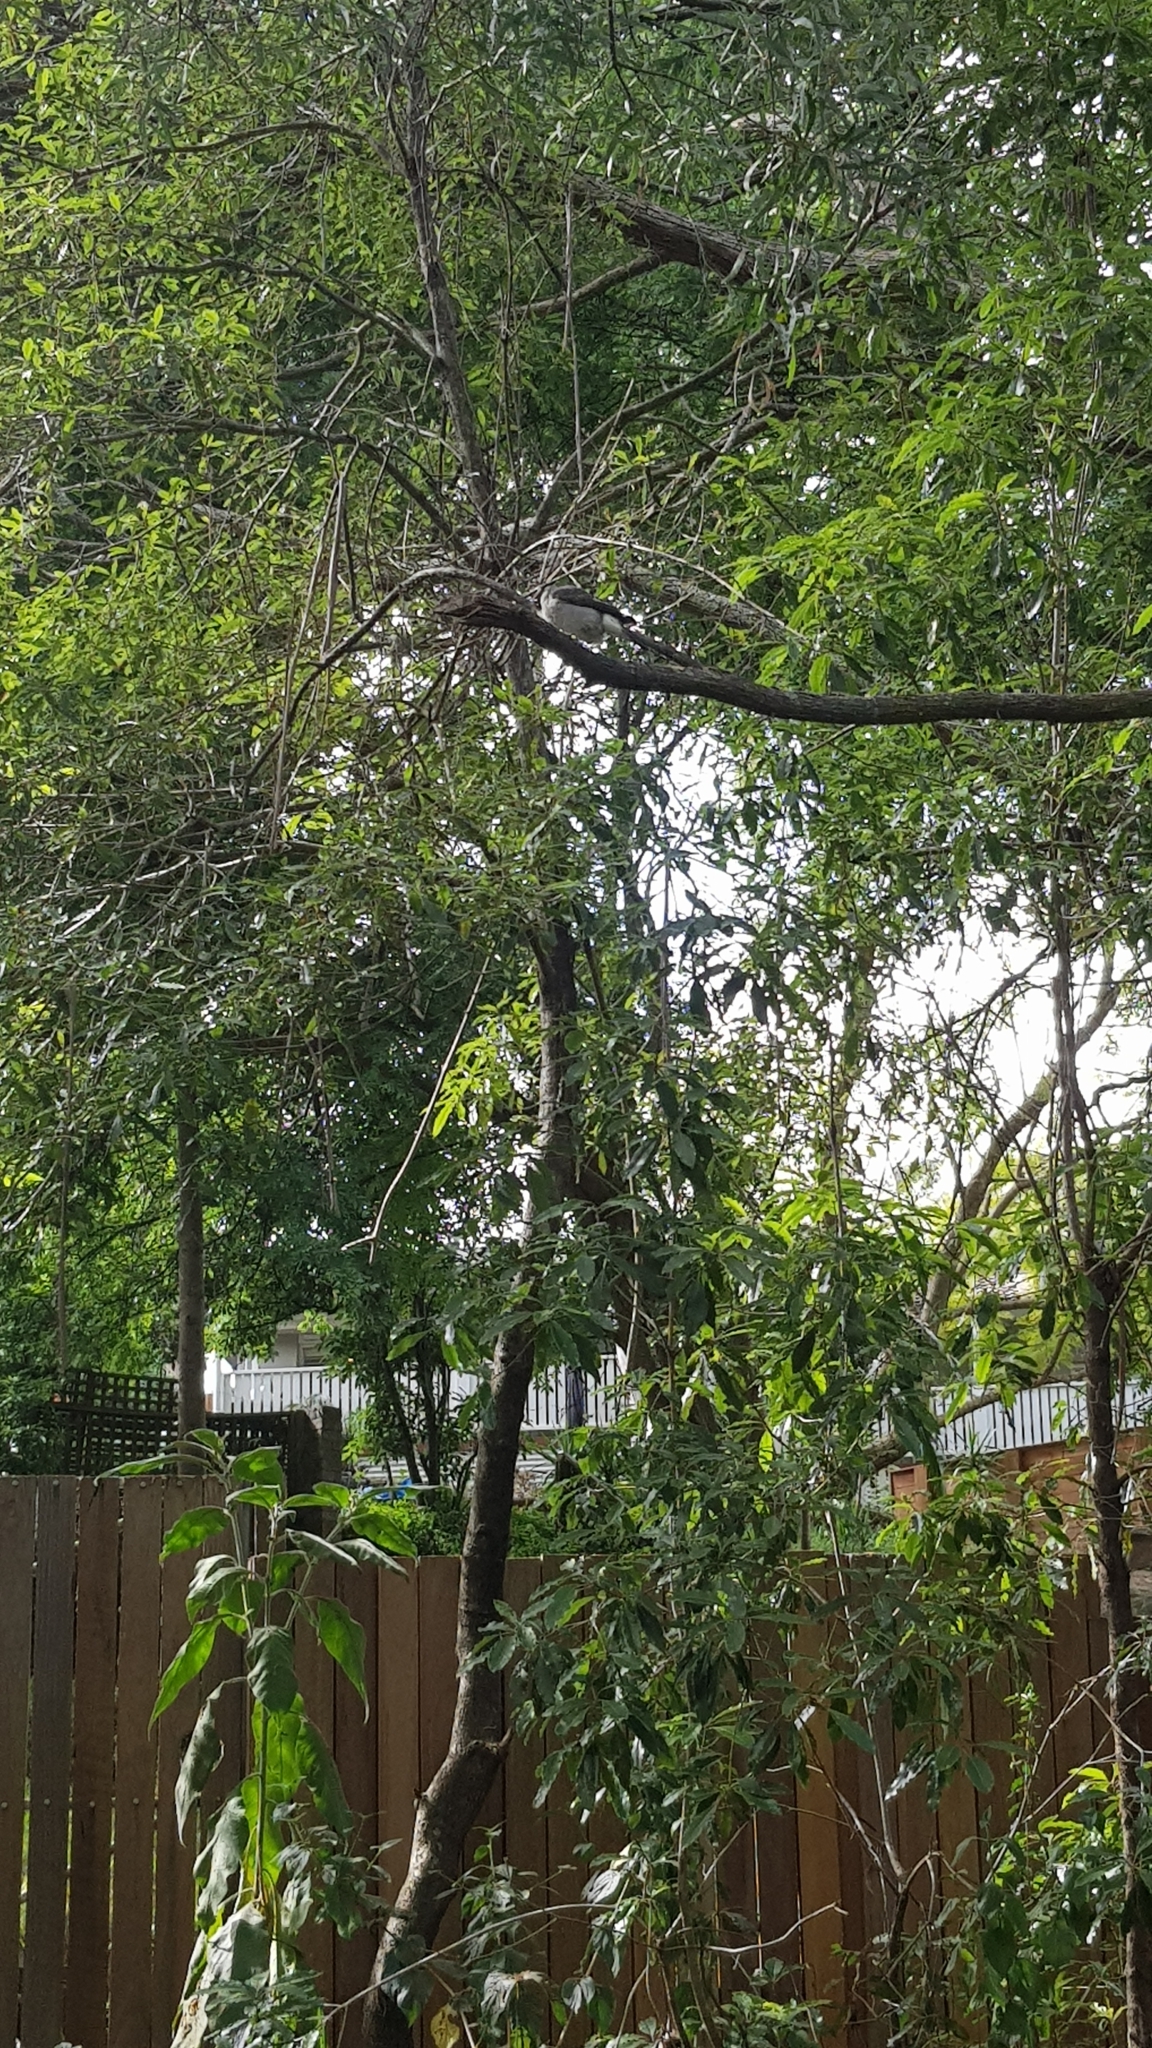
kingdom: Animalia
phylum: Chordata
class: Aves
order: Passeriformes
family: Cracticidae
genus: Cracticus
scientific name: Cracticus torquatus
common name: Grey butcherbird
